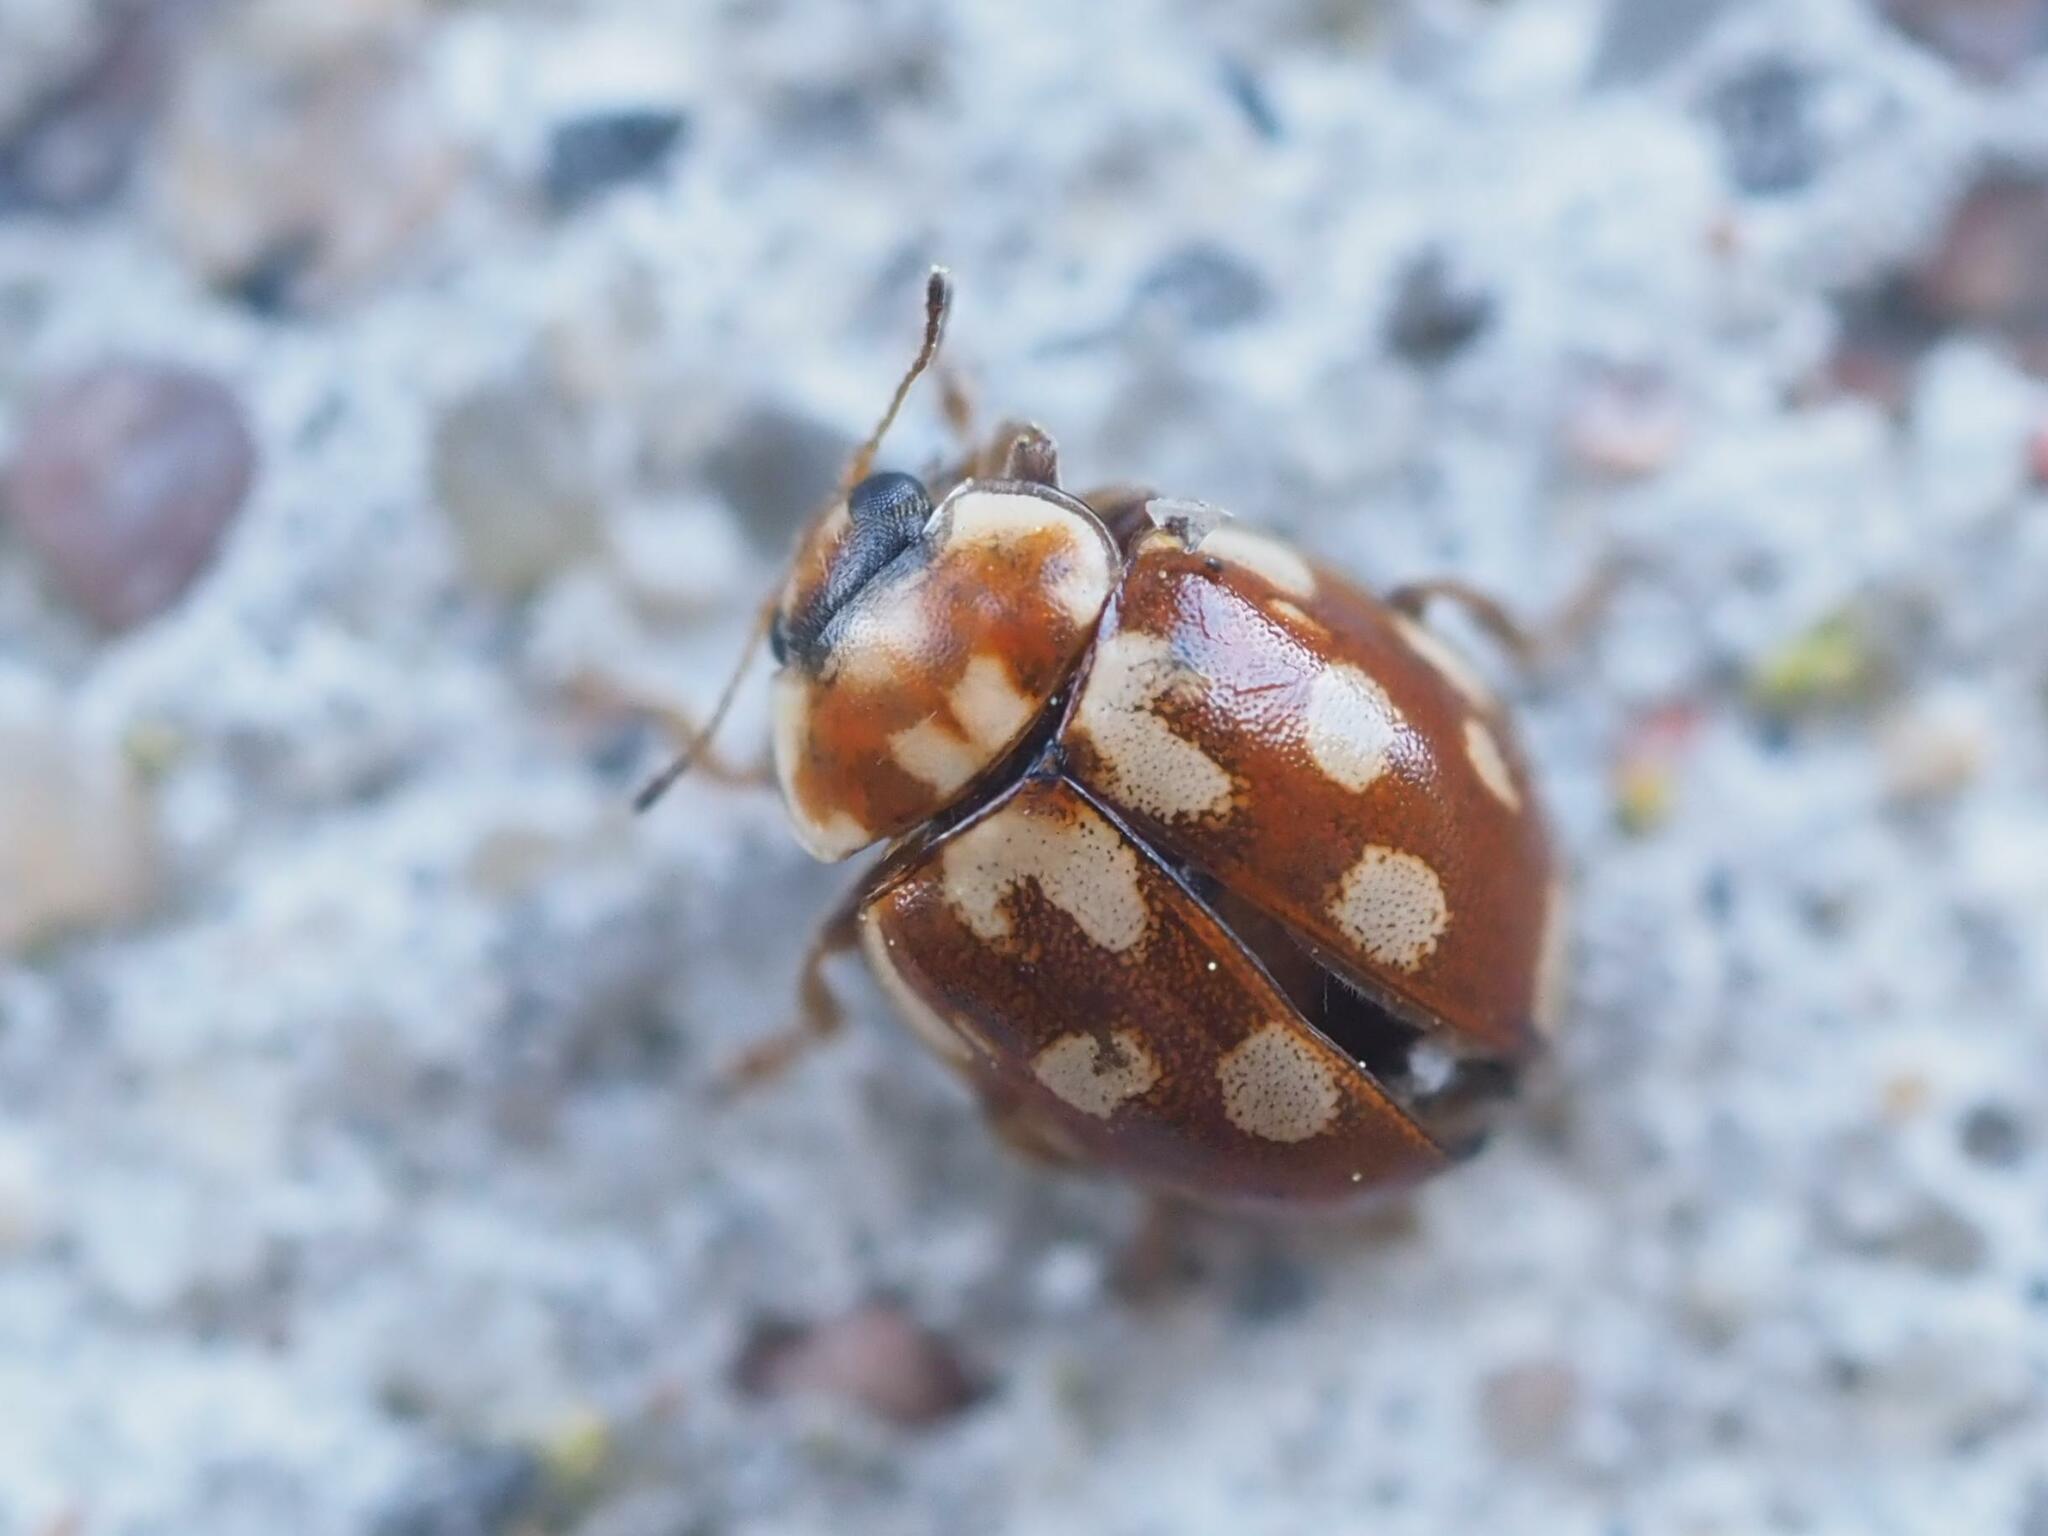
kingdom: Animalia
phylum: Arthropoda
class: Insecta
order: Coleoptera
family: Coccinellidae
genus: Myrrha
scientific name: Myrrha octodecimguttata
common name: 18-spot ladybird
